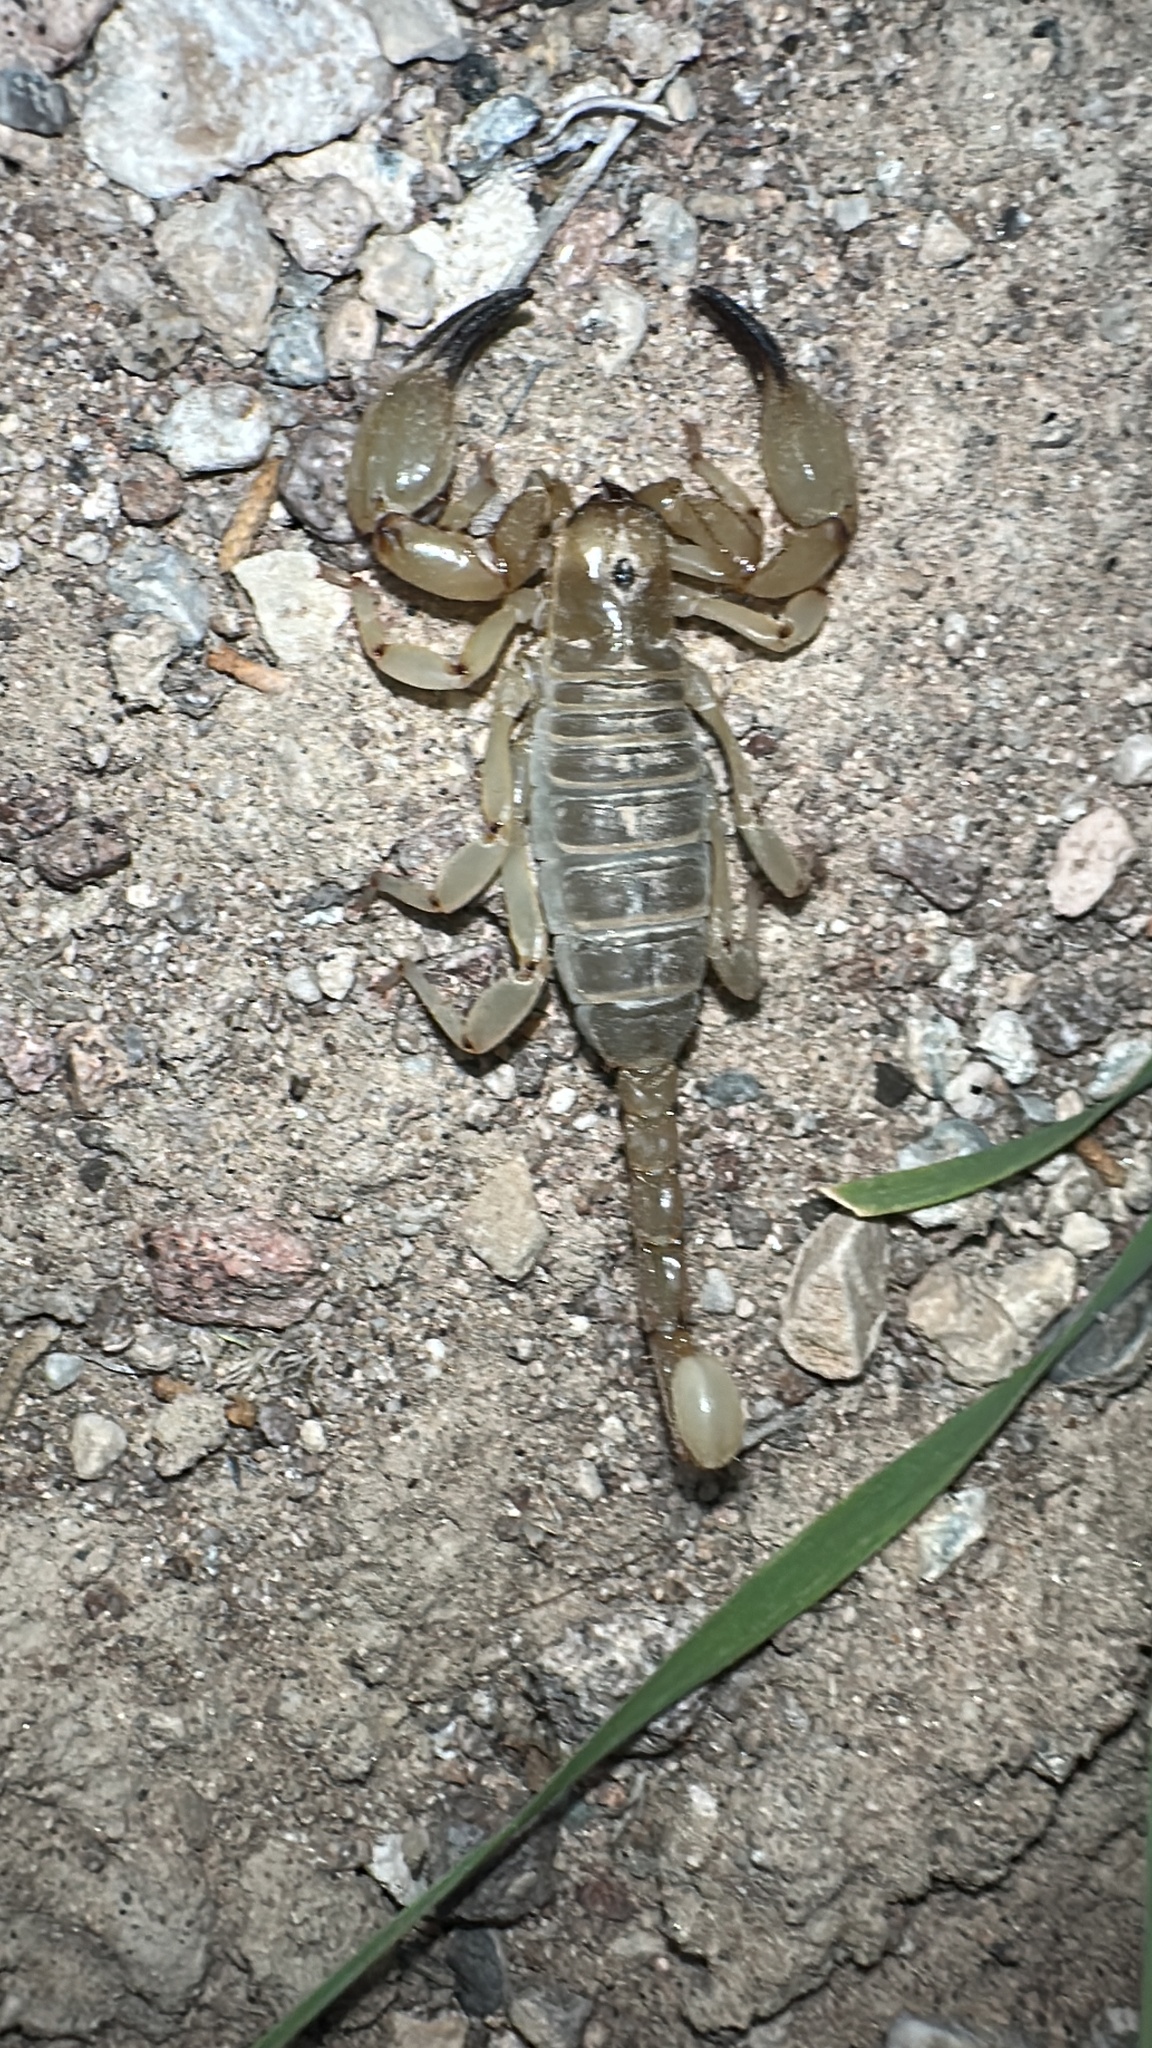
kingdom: Animalia
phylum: Arthropoda
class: Arachnida
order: Scorpiones
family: Chactidae
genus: Anuroctonus
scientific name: Anuroctonus phaiodactylus
